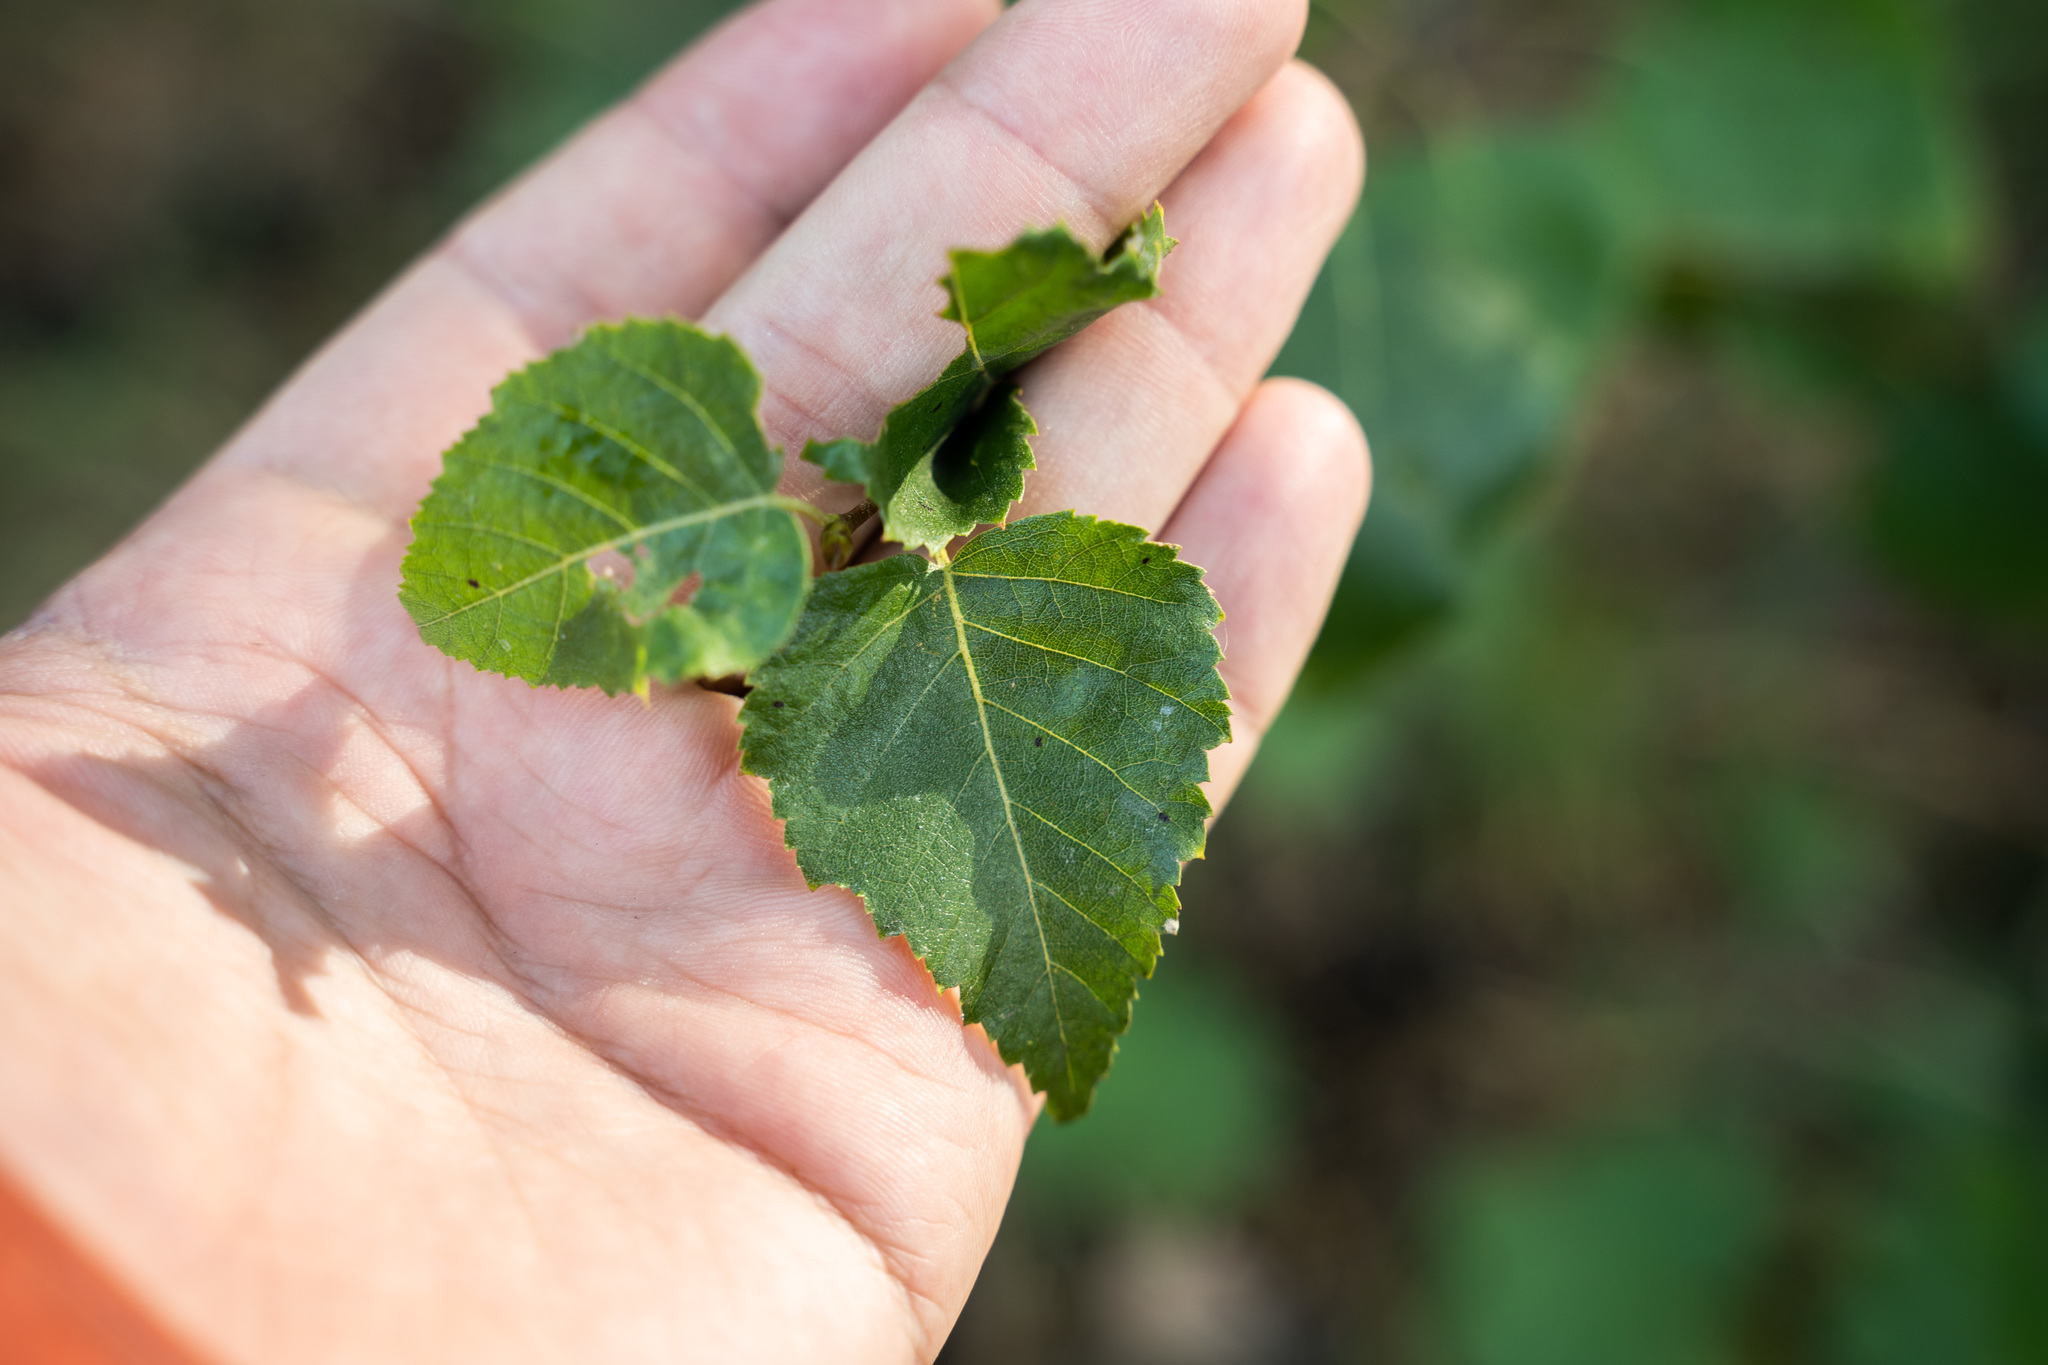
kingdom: Plantae
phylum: Tracheophyta
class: Magnoliopsida
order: Fagales
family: Betulaceae
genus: Betula
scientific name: Betula pendula
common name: Silver birch
